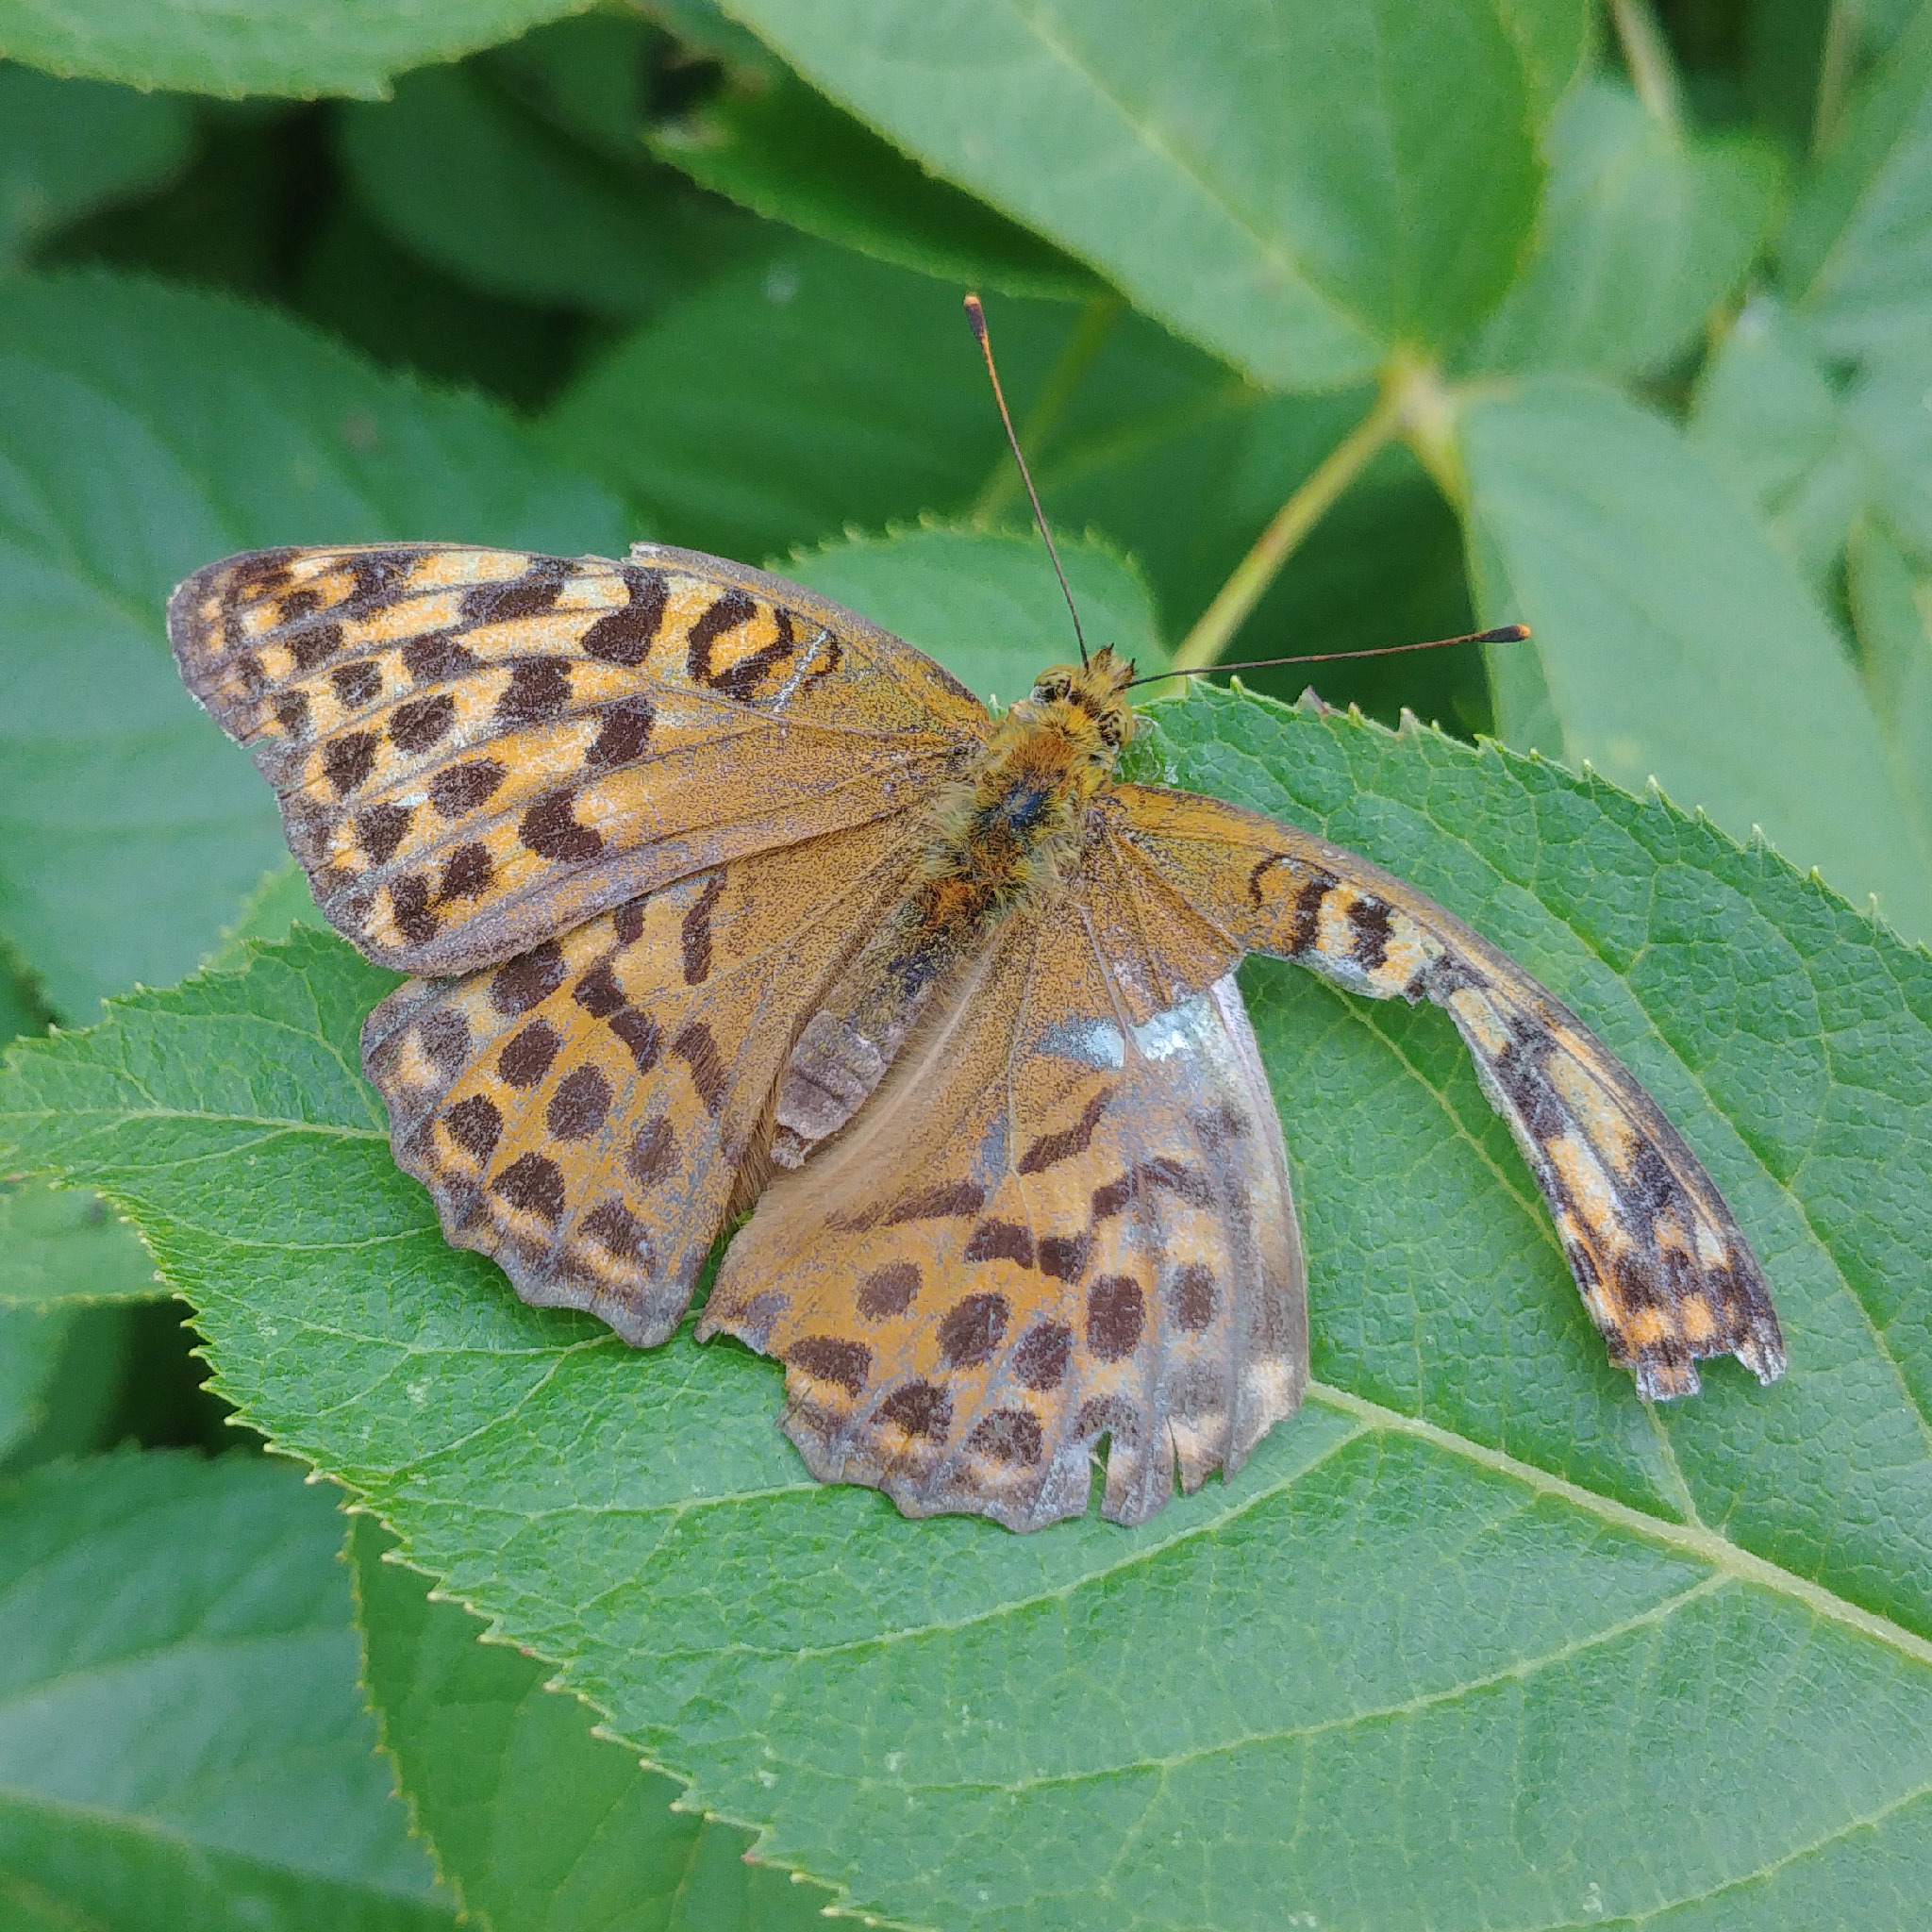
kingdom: Animalia
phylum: Arthropoda
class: Insecta
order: Lepidoptera
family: Nymphalidae
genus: Argynnis
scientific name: Argynnis paphia
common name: Silver-washed fritillary
